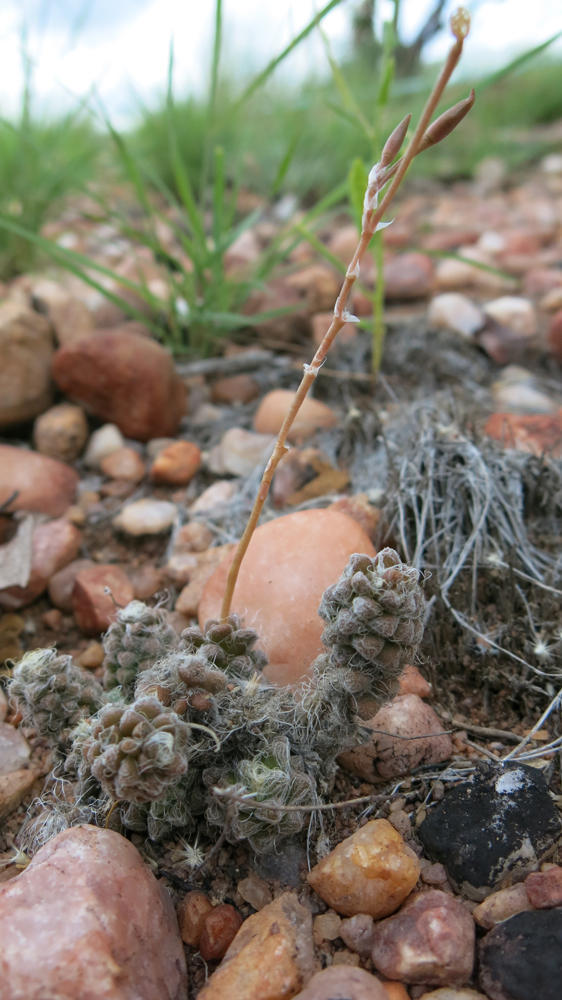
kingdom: Plantae
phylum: Tracheophyta
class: Magnoliopsida
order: Caryophyllales
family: Anacampserotaceae
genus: Anacampseros
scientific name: Anacampseros subnuda
